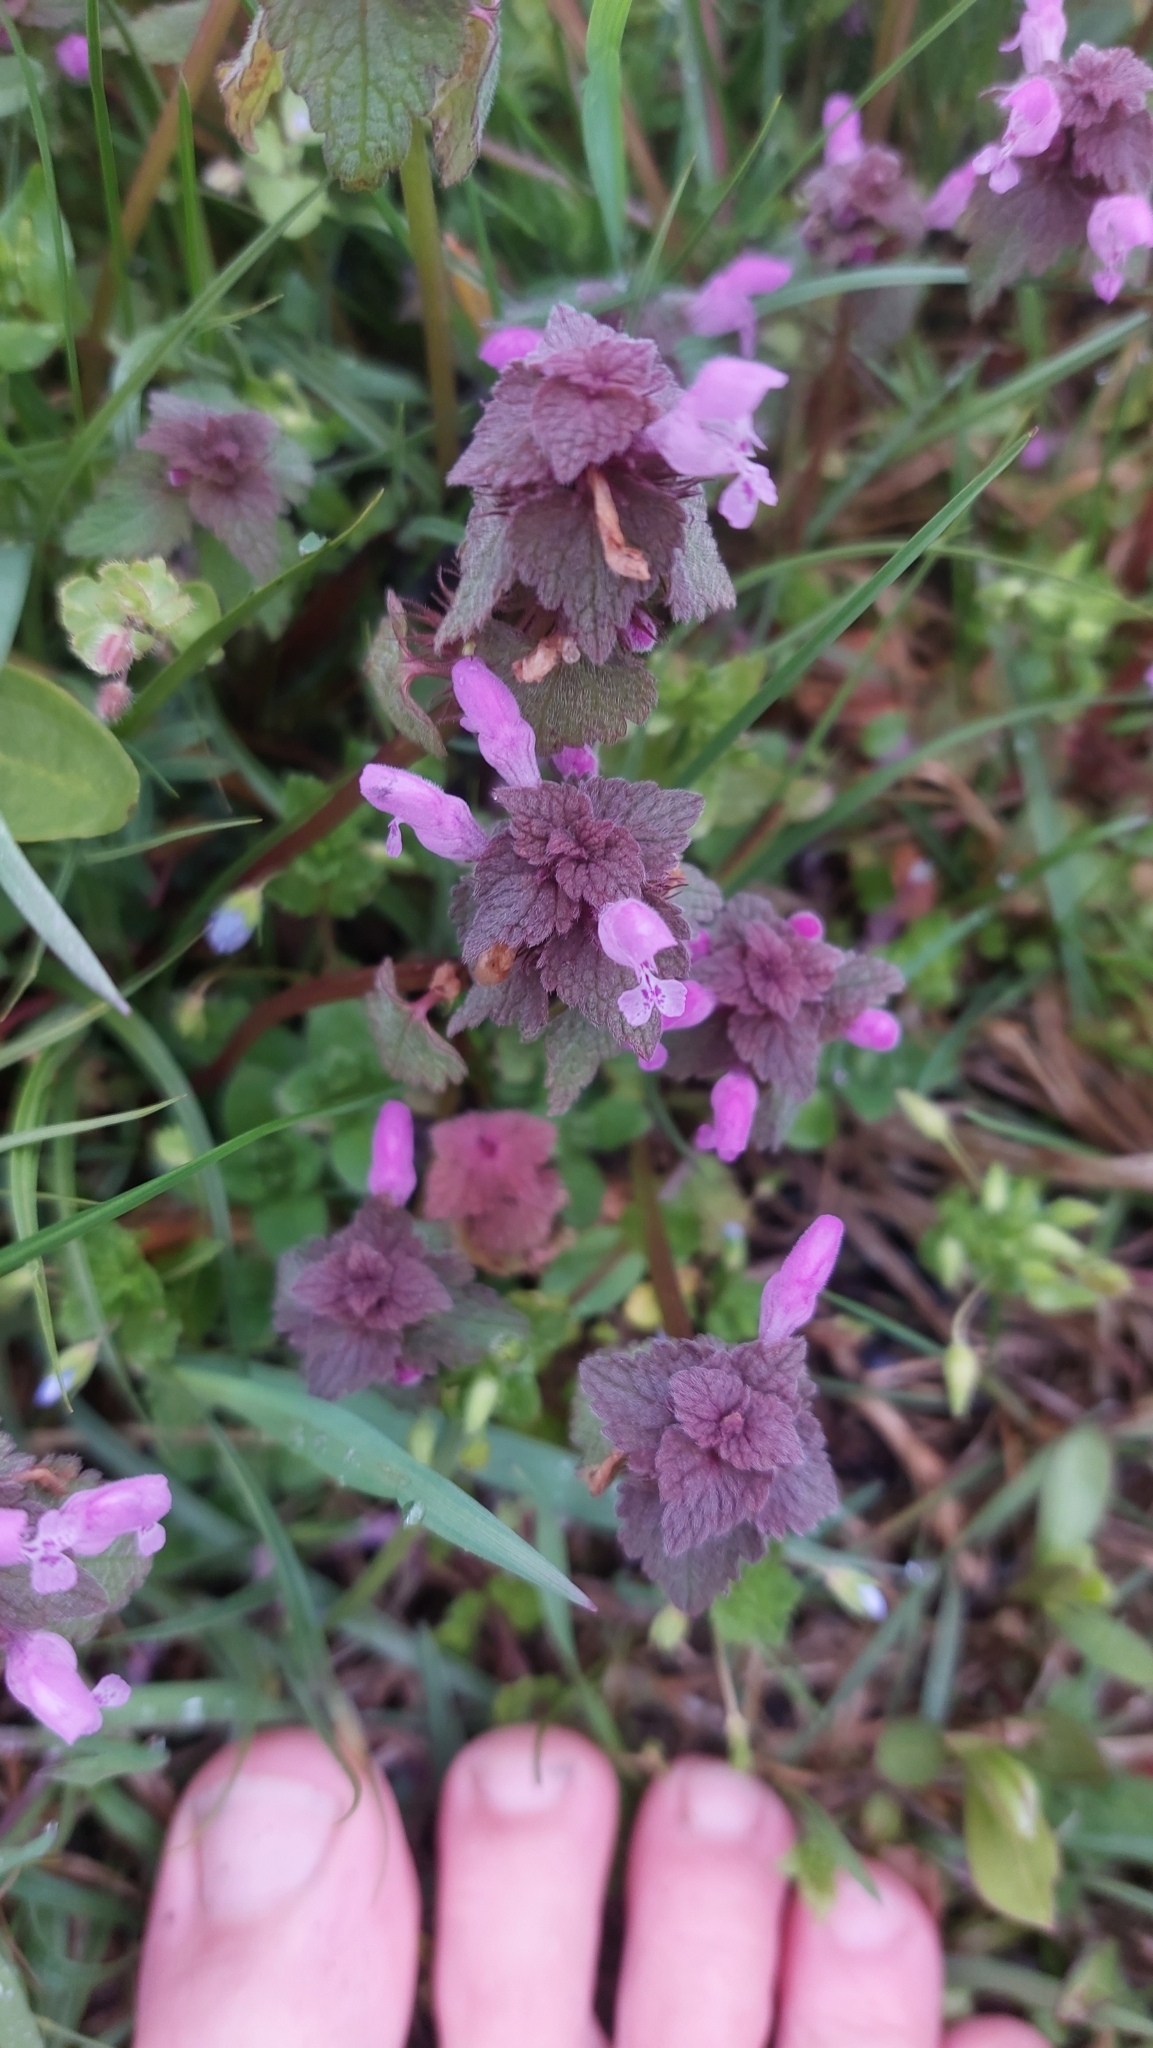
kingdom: Plantae
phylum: Tracheophyta
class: Magnoliopsida
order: Lamiales
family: Lamiaceae
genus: Lamium
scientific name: Lamium purpureum
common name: Red dead-nettle
